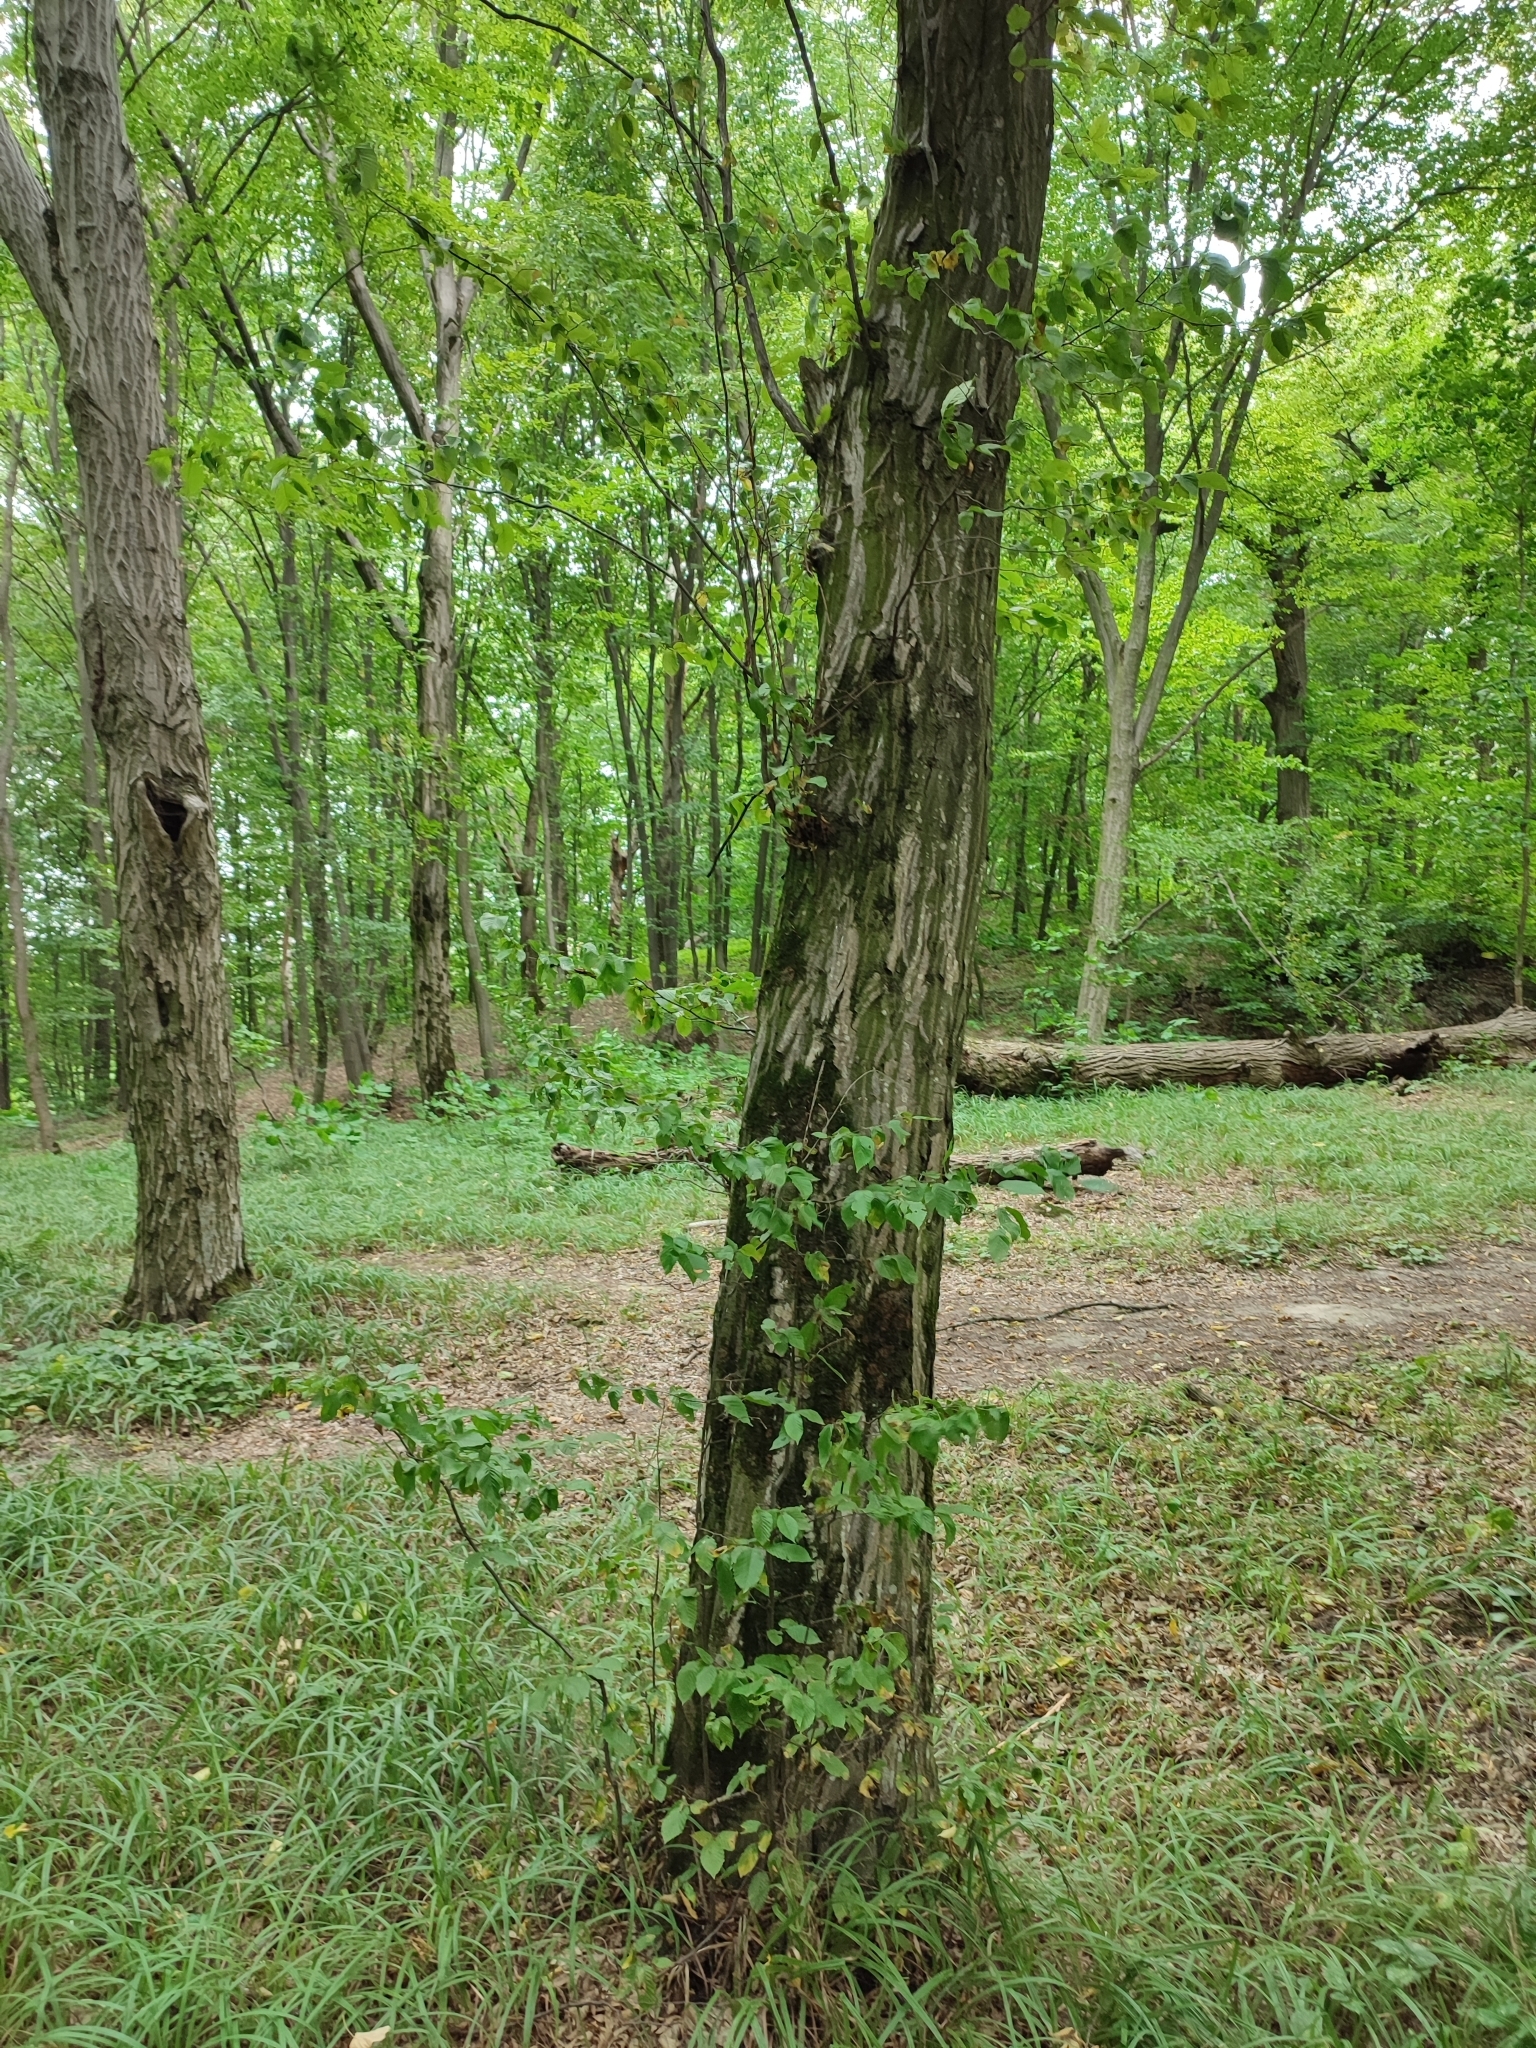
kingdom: Plantae
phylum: Tracheophyta
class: Magnoliopsida
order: Fagales
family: Betulaceae
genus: Carpinus
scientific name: Carpinus betulus
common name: Hornbeam
